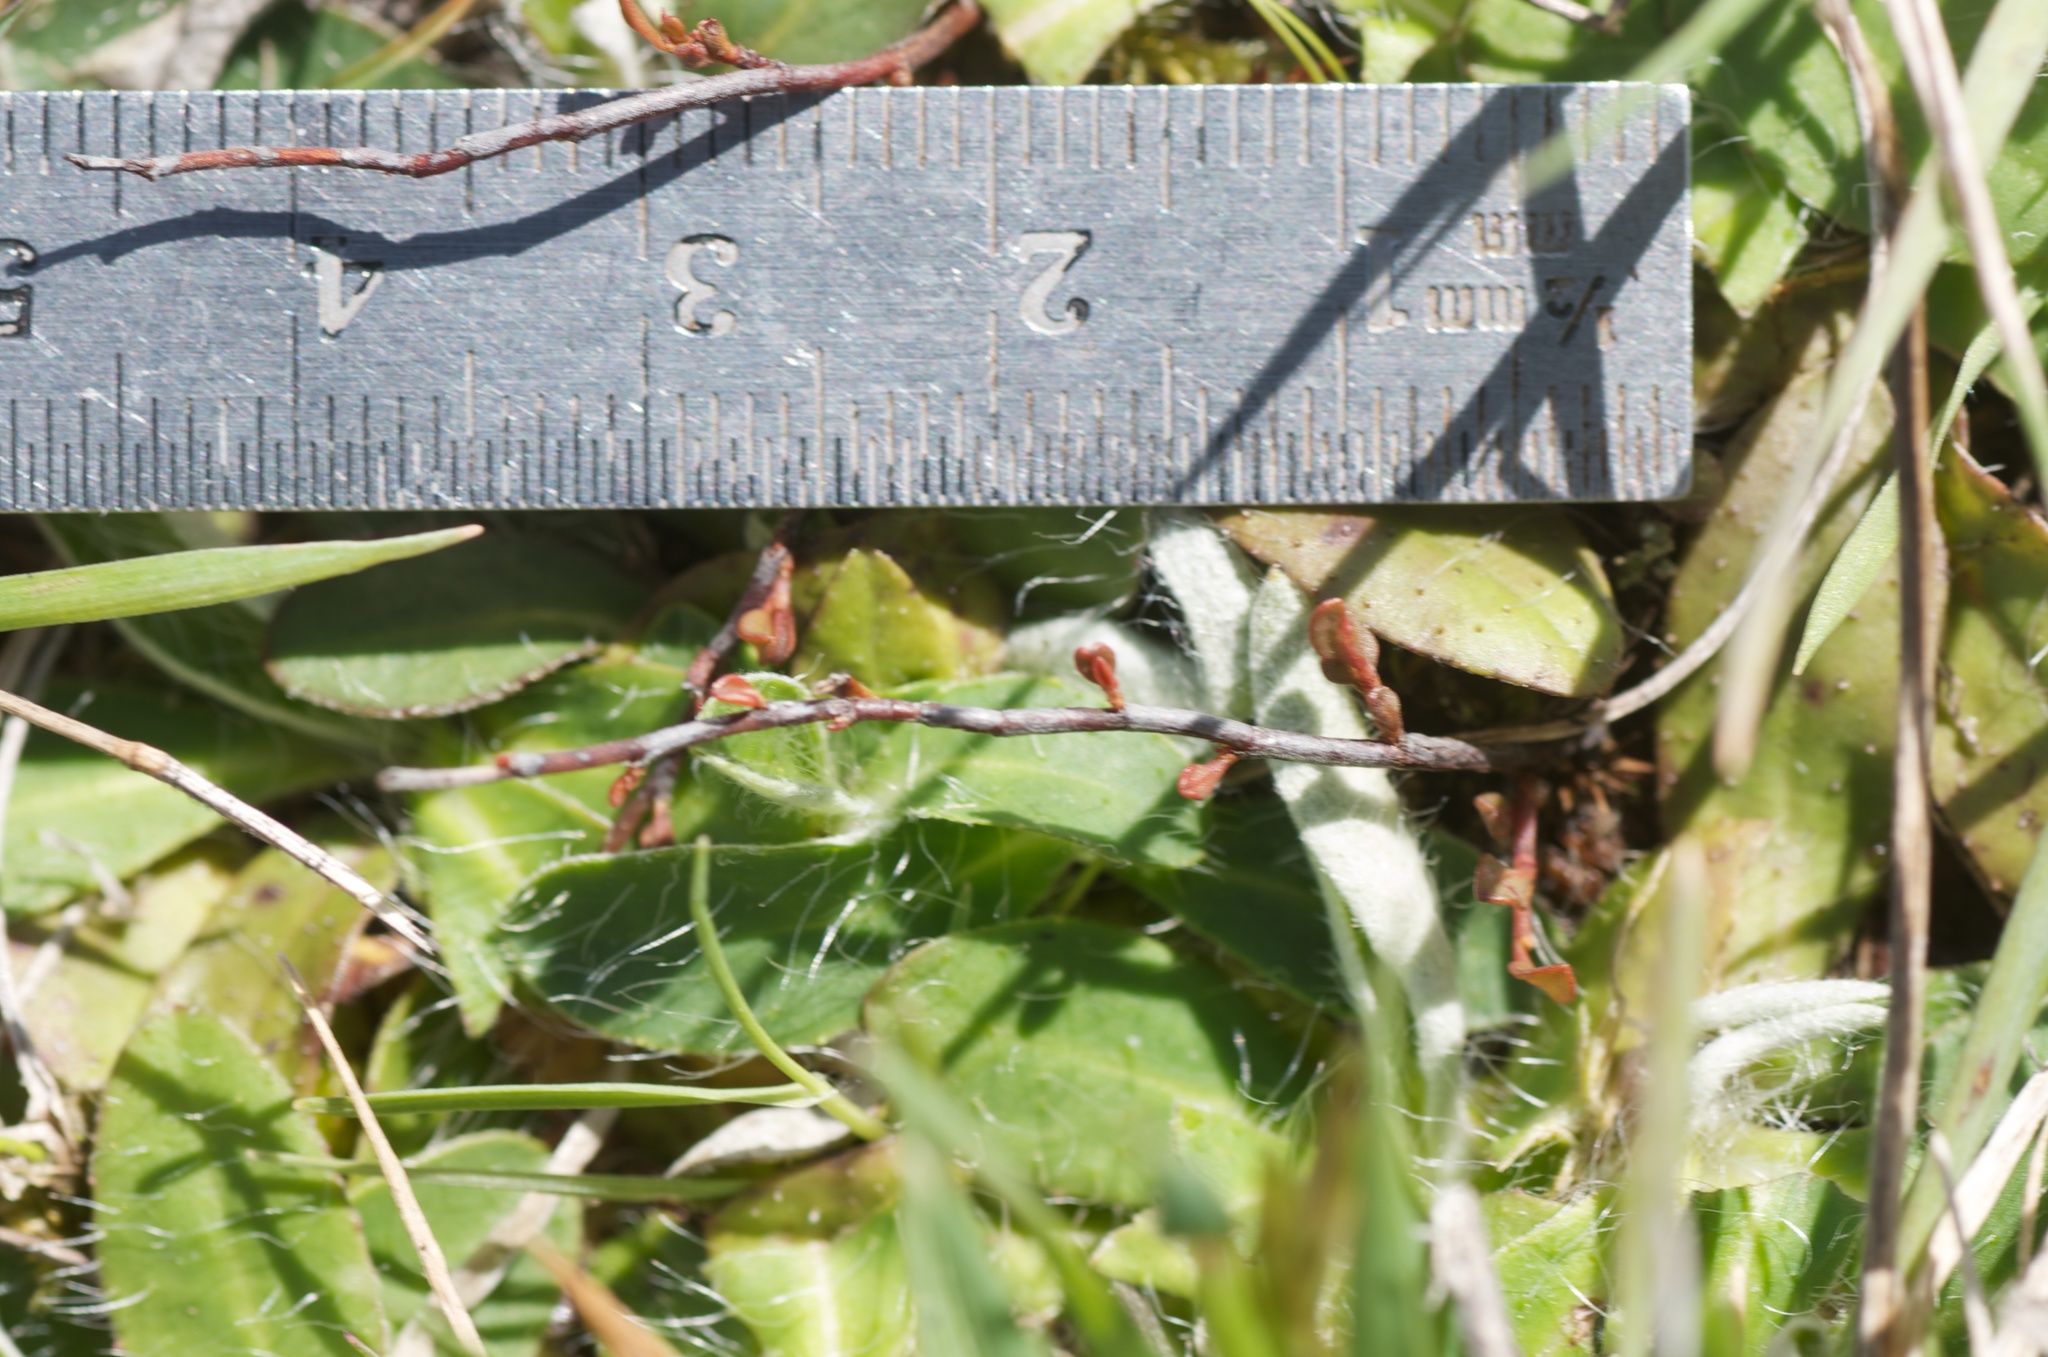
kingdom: Plantae
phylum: Tracheophyta
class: Magnoliopsida
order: Caryophyllales
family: Polygonaceae
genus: Muehlenbeckia
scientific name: Muehlenbeckia axillaris
